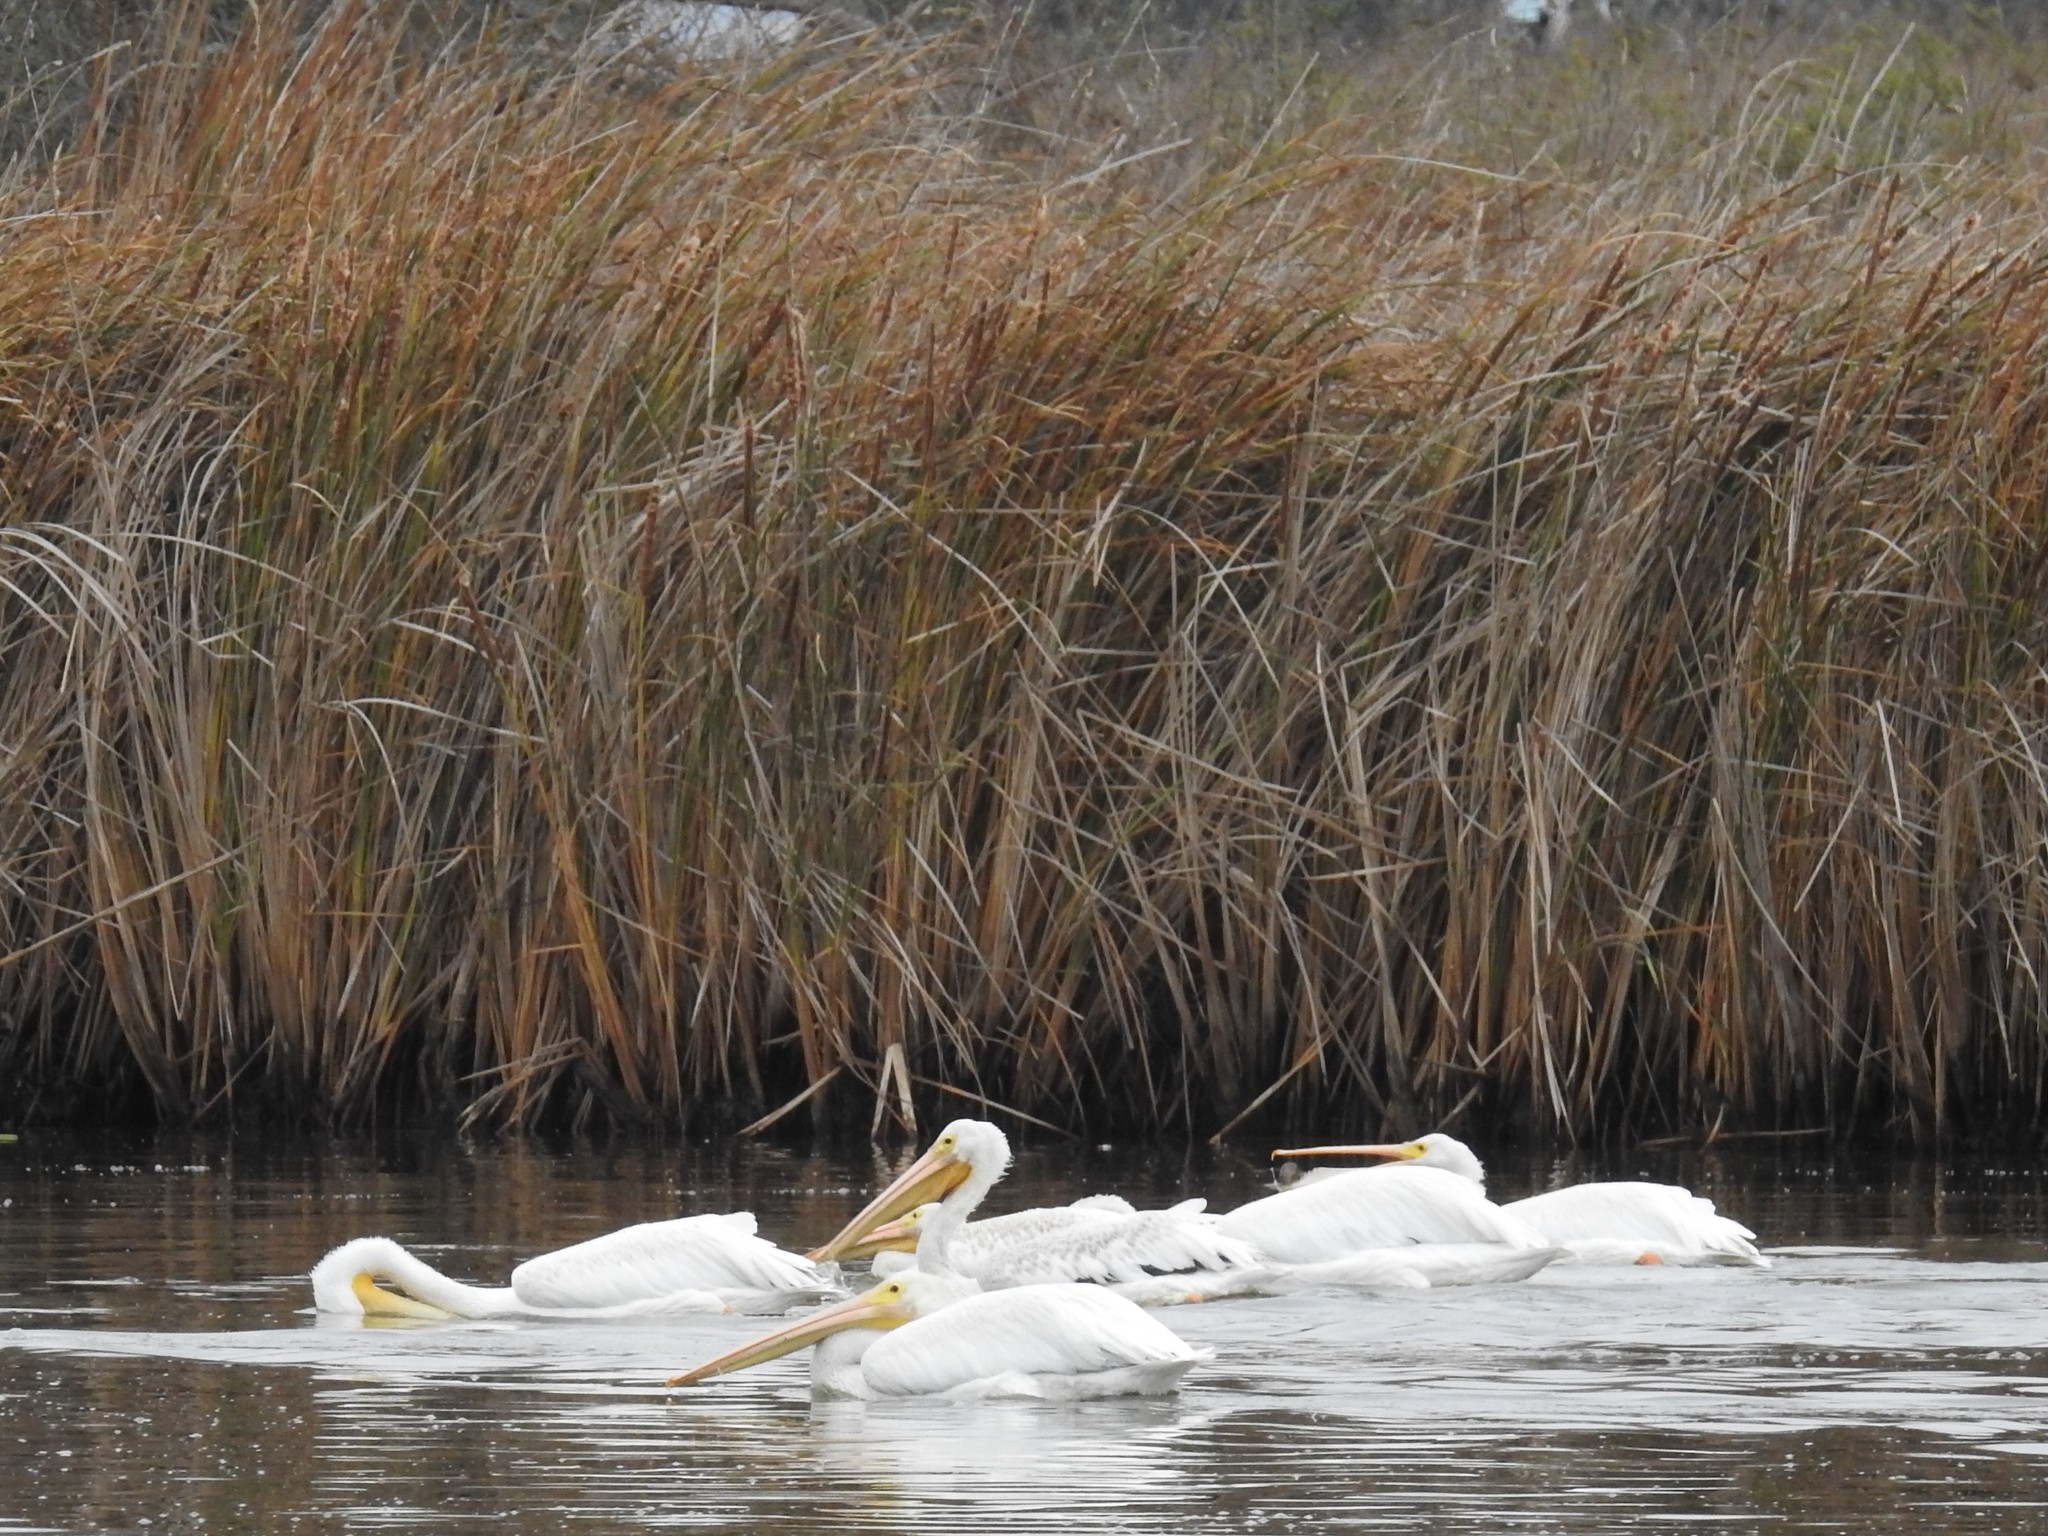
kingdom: Animalia
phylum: Chordata
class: Aves
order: Pelecaniformes
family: Pelecanidae
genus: Pelecanus
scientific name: Pelecanus erythrorhynchos
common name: American white pelican
